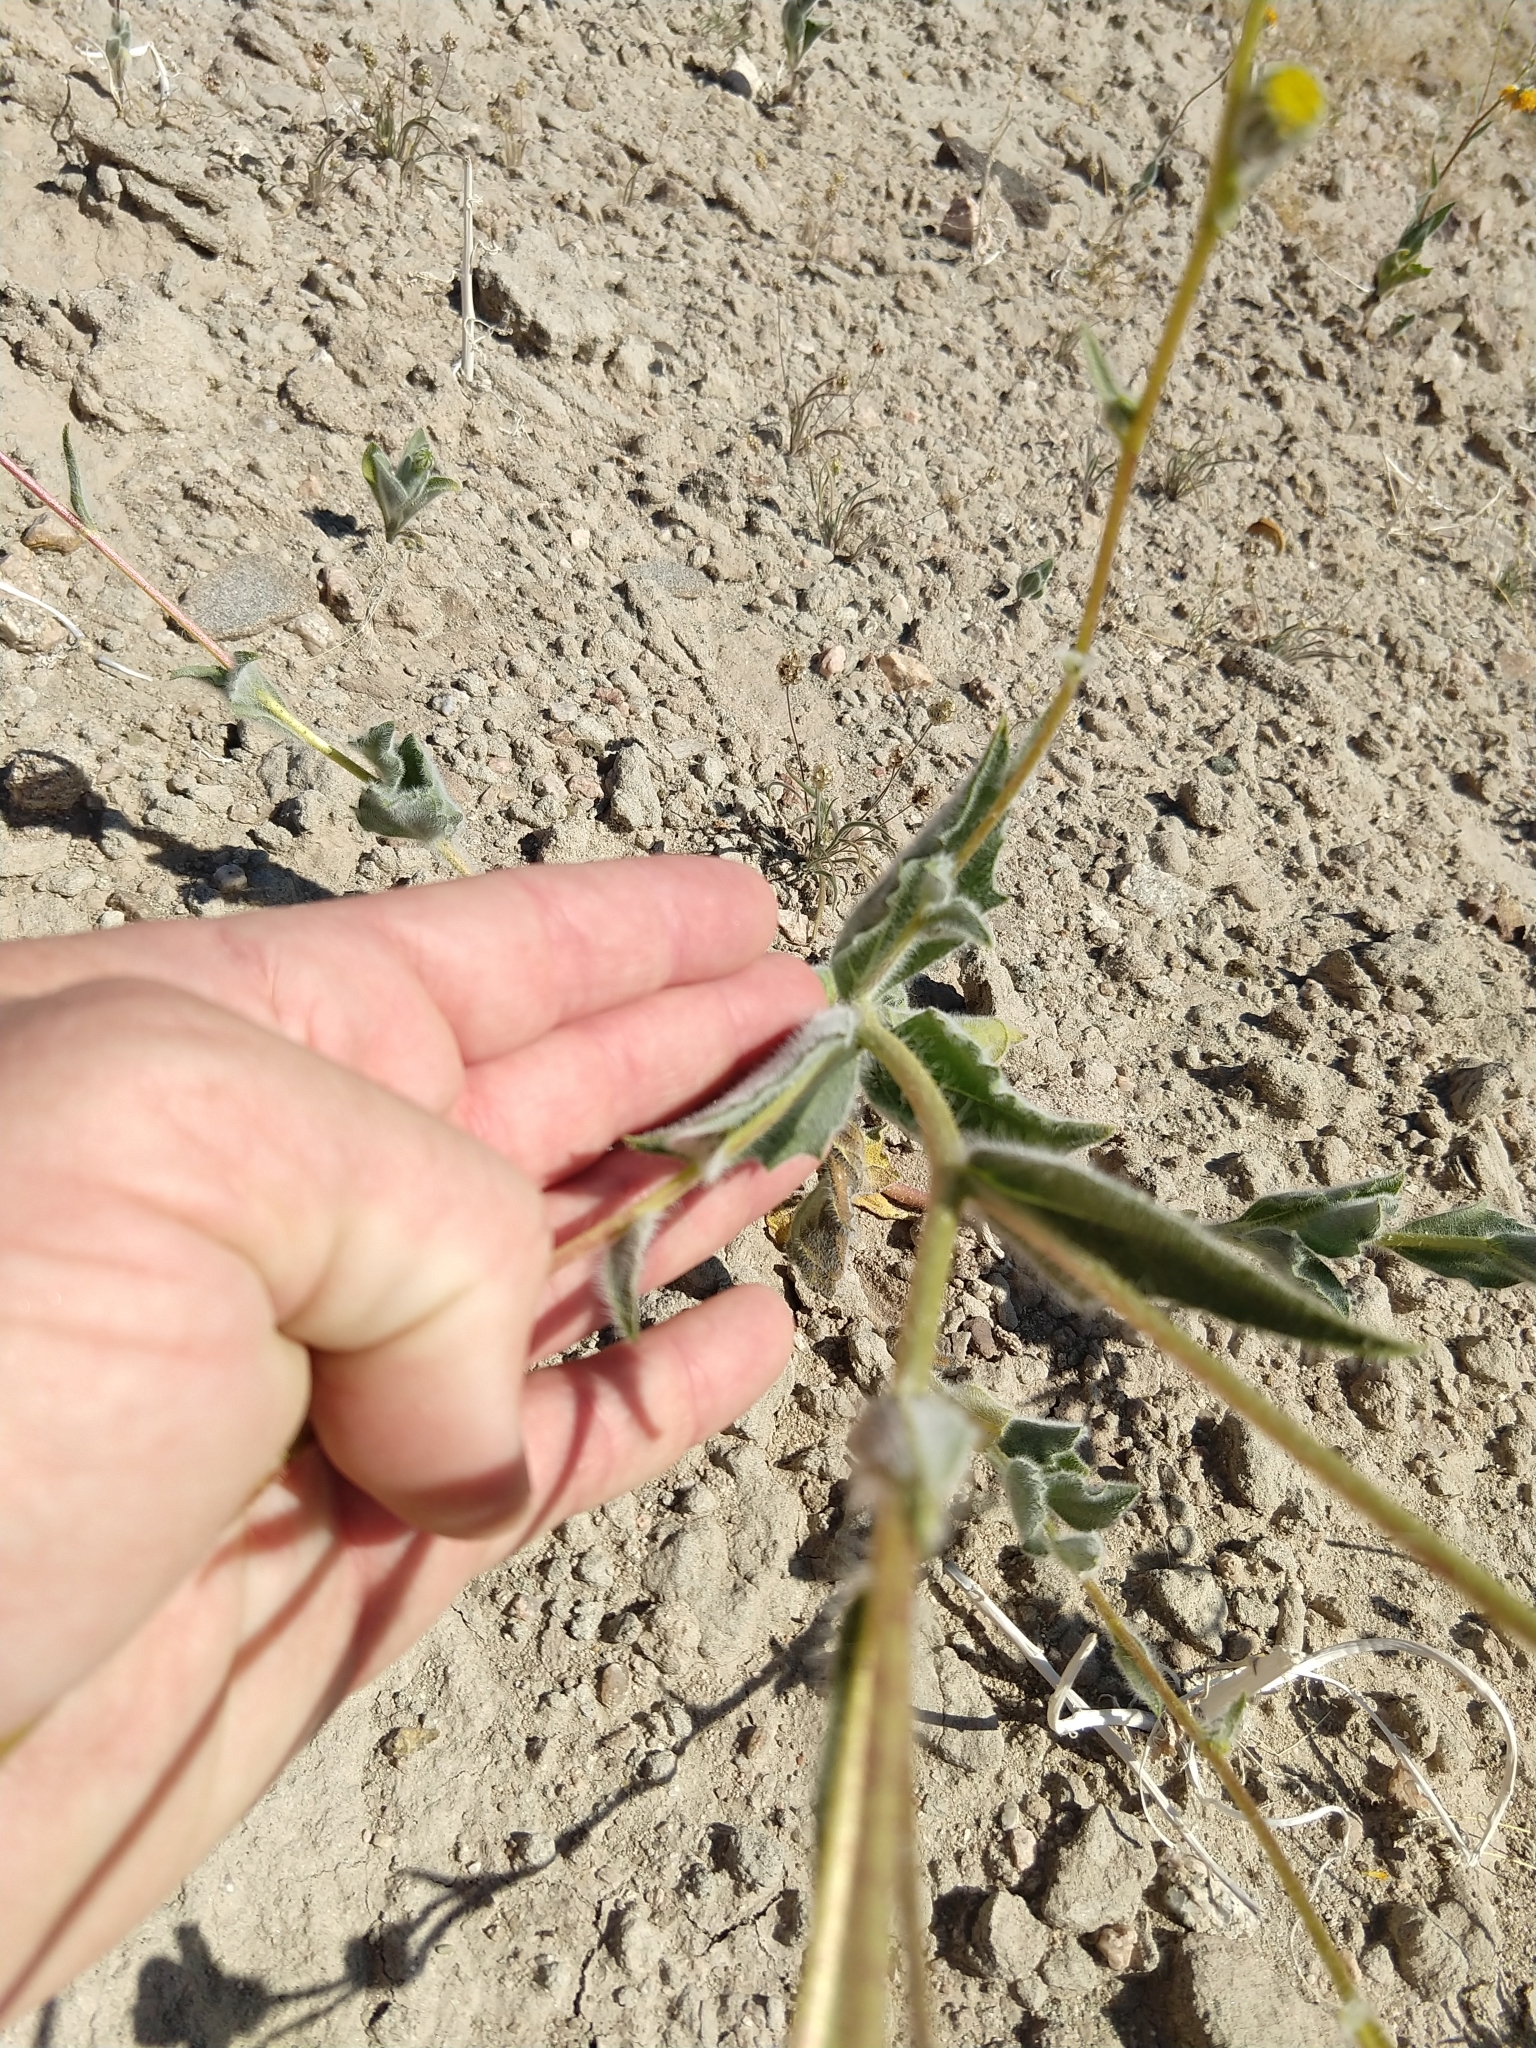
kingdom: Plantae
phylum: Tracheophyta
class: Magnoliopsida
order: Asterales
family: Asteraceae
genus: Geraea
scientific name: Geraea canescens
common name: Desert-gold
